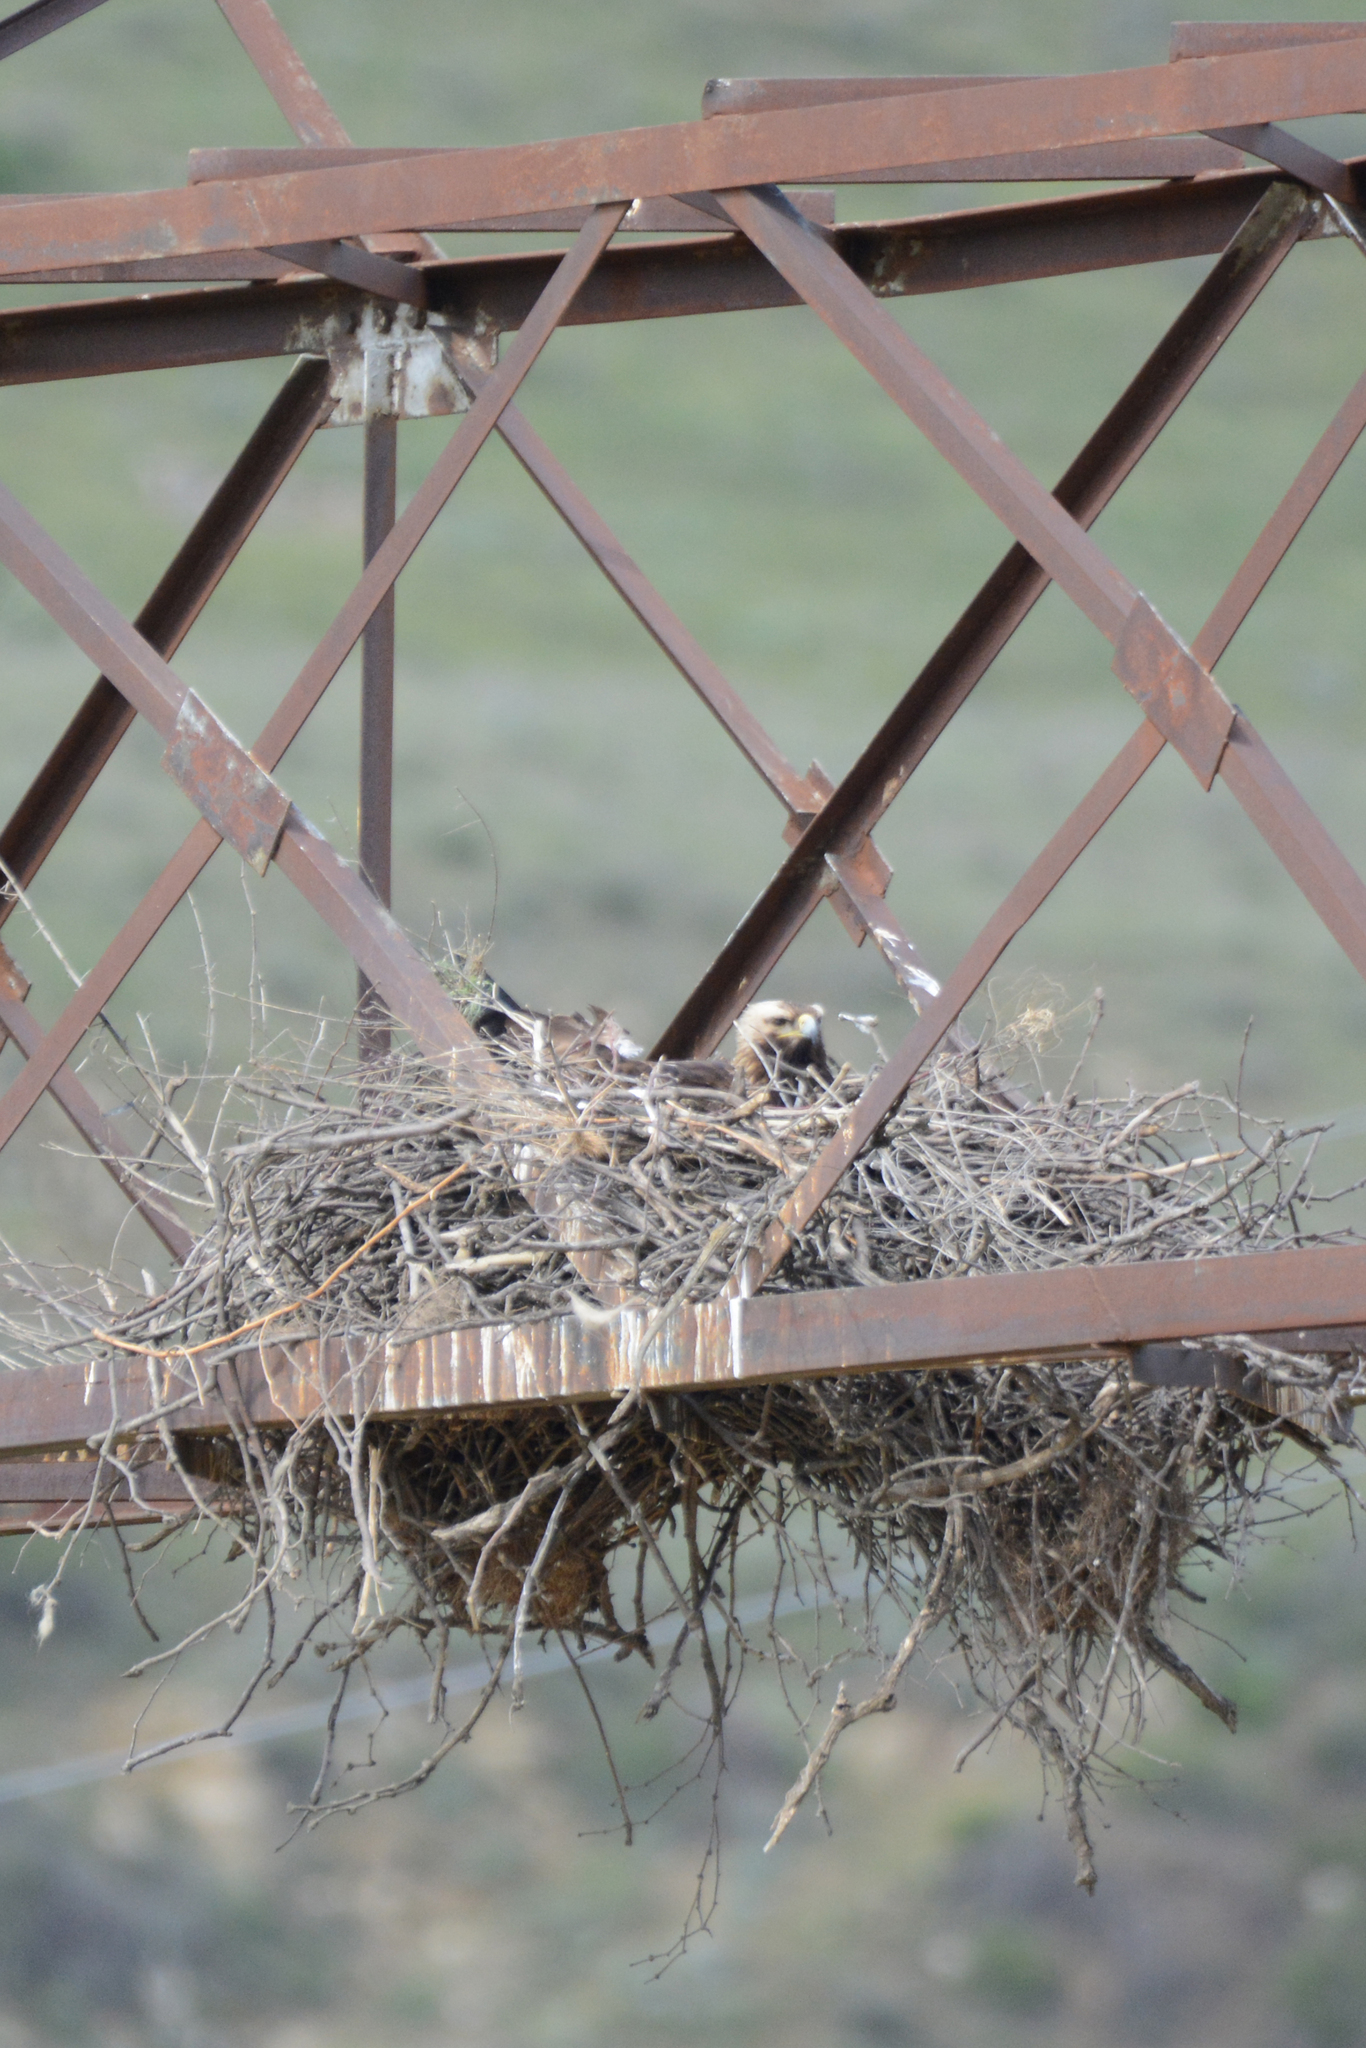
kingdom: Animalia
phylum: Chordata
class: Aves
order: Accipitriformes
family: Accipitridae
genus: Aquila
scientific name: Aquila heliaca
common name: Eastern imperial eagle
